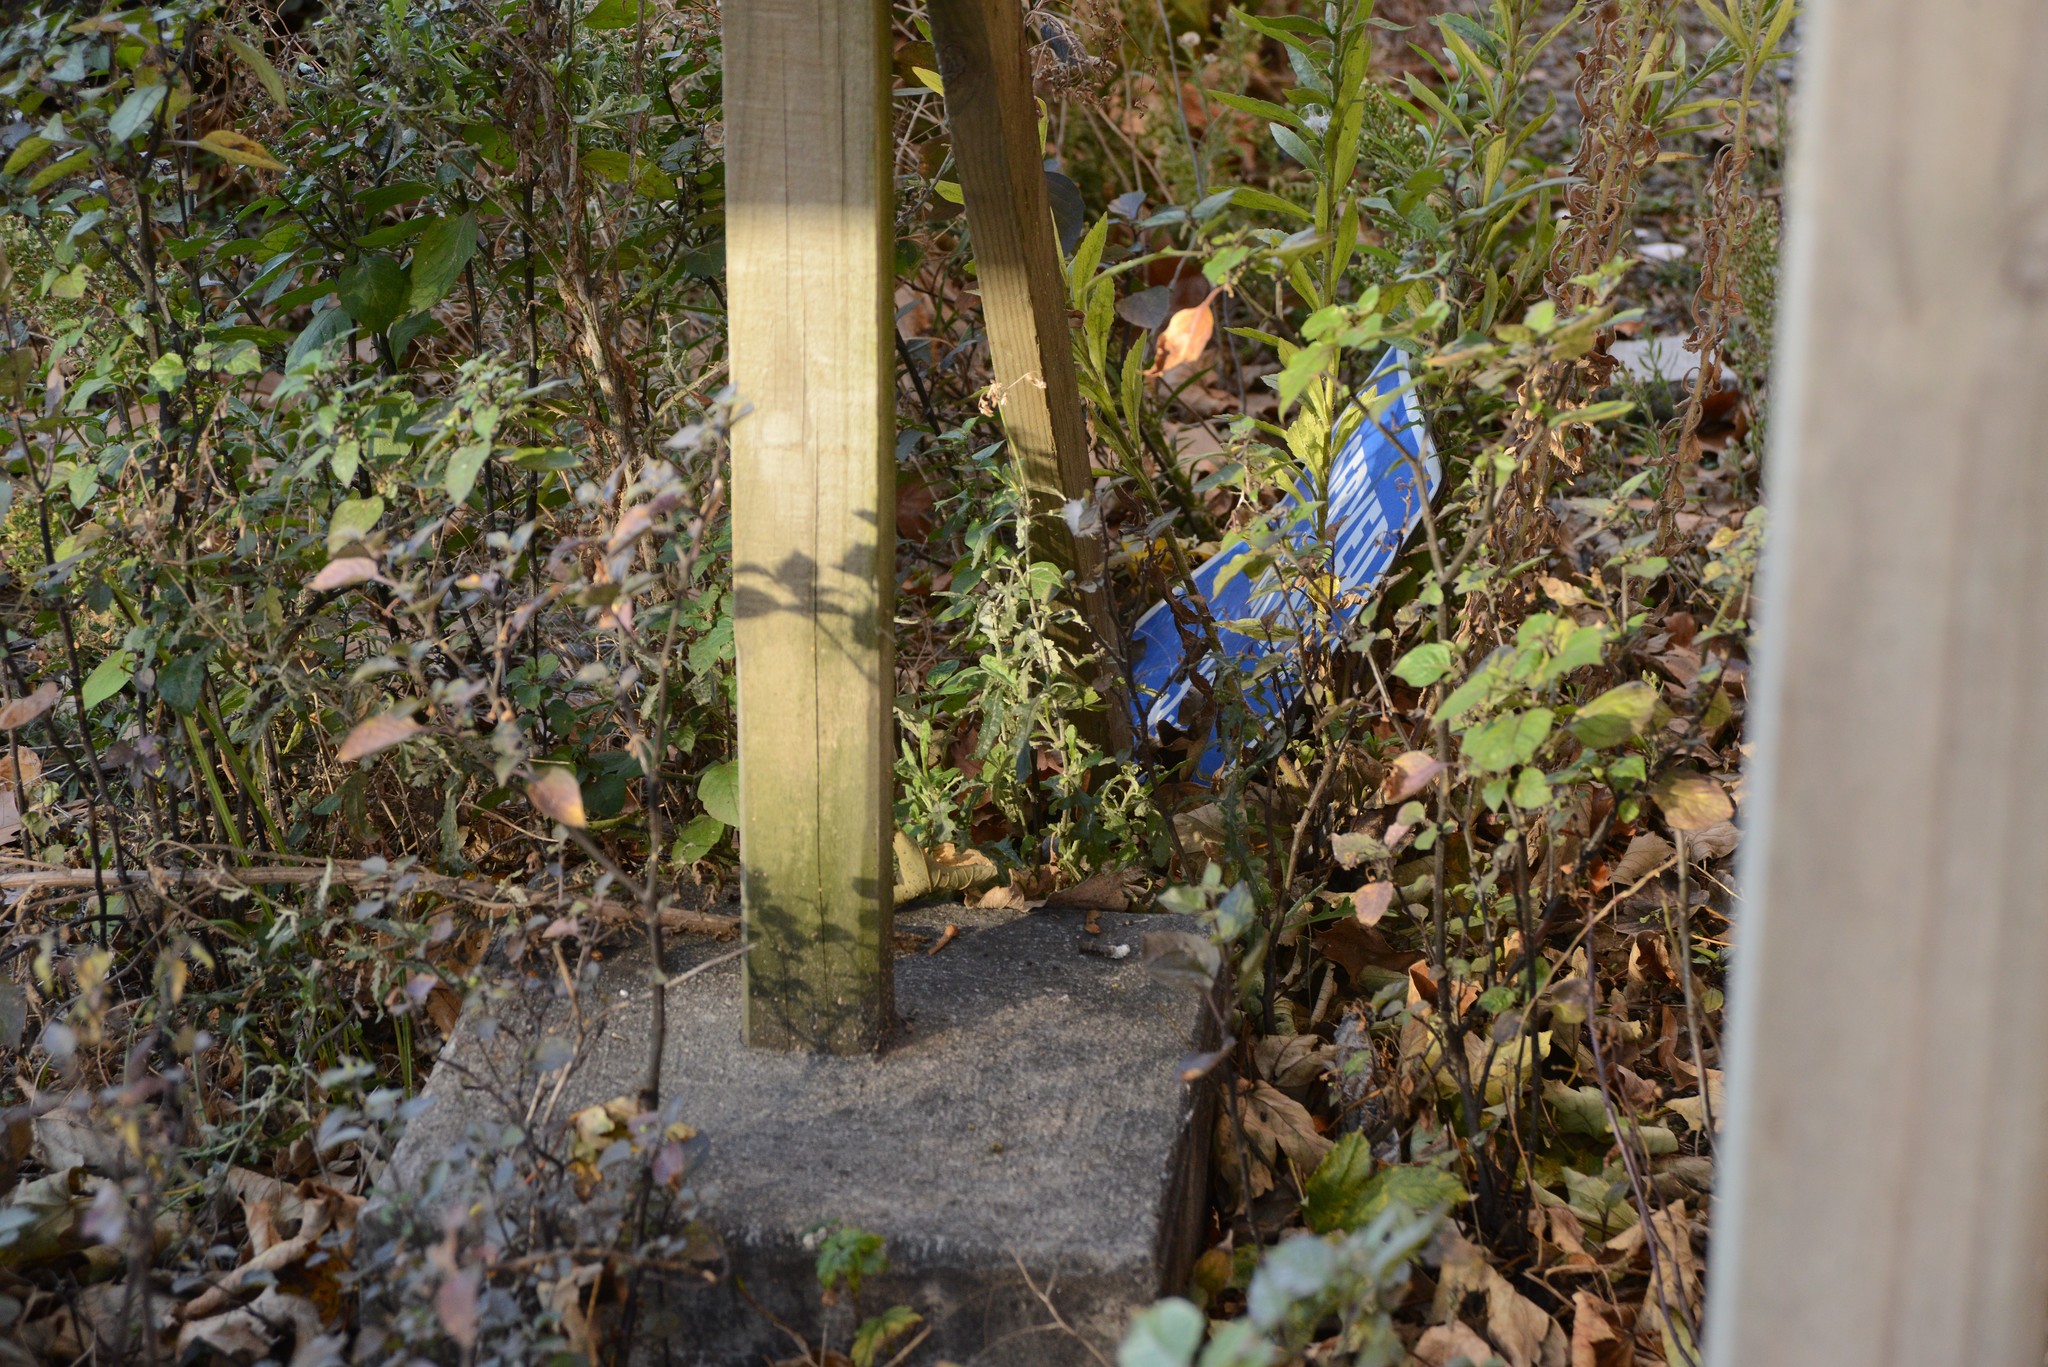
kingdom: Plantae
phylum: Tracheophyta
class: Magnoliopsida
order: Asterales
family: Asteraceae
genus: Senecio
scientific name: Senecio glomeratus
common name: Cutleaf burnweed
